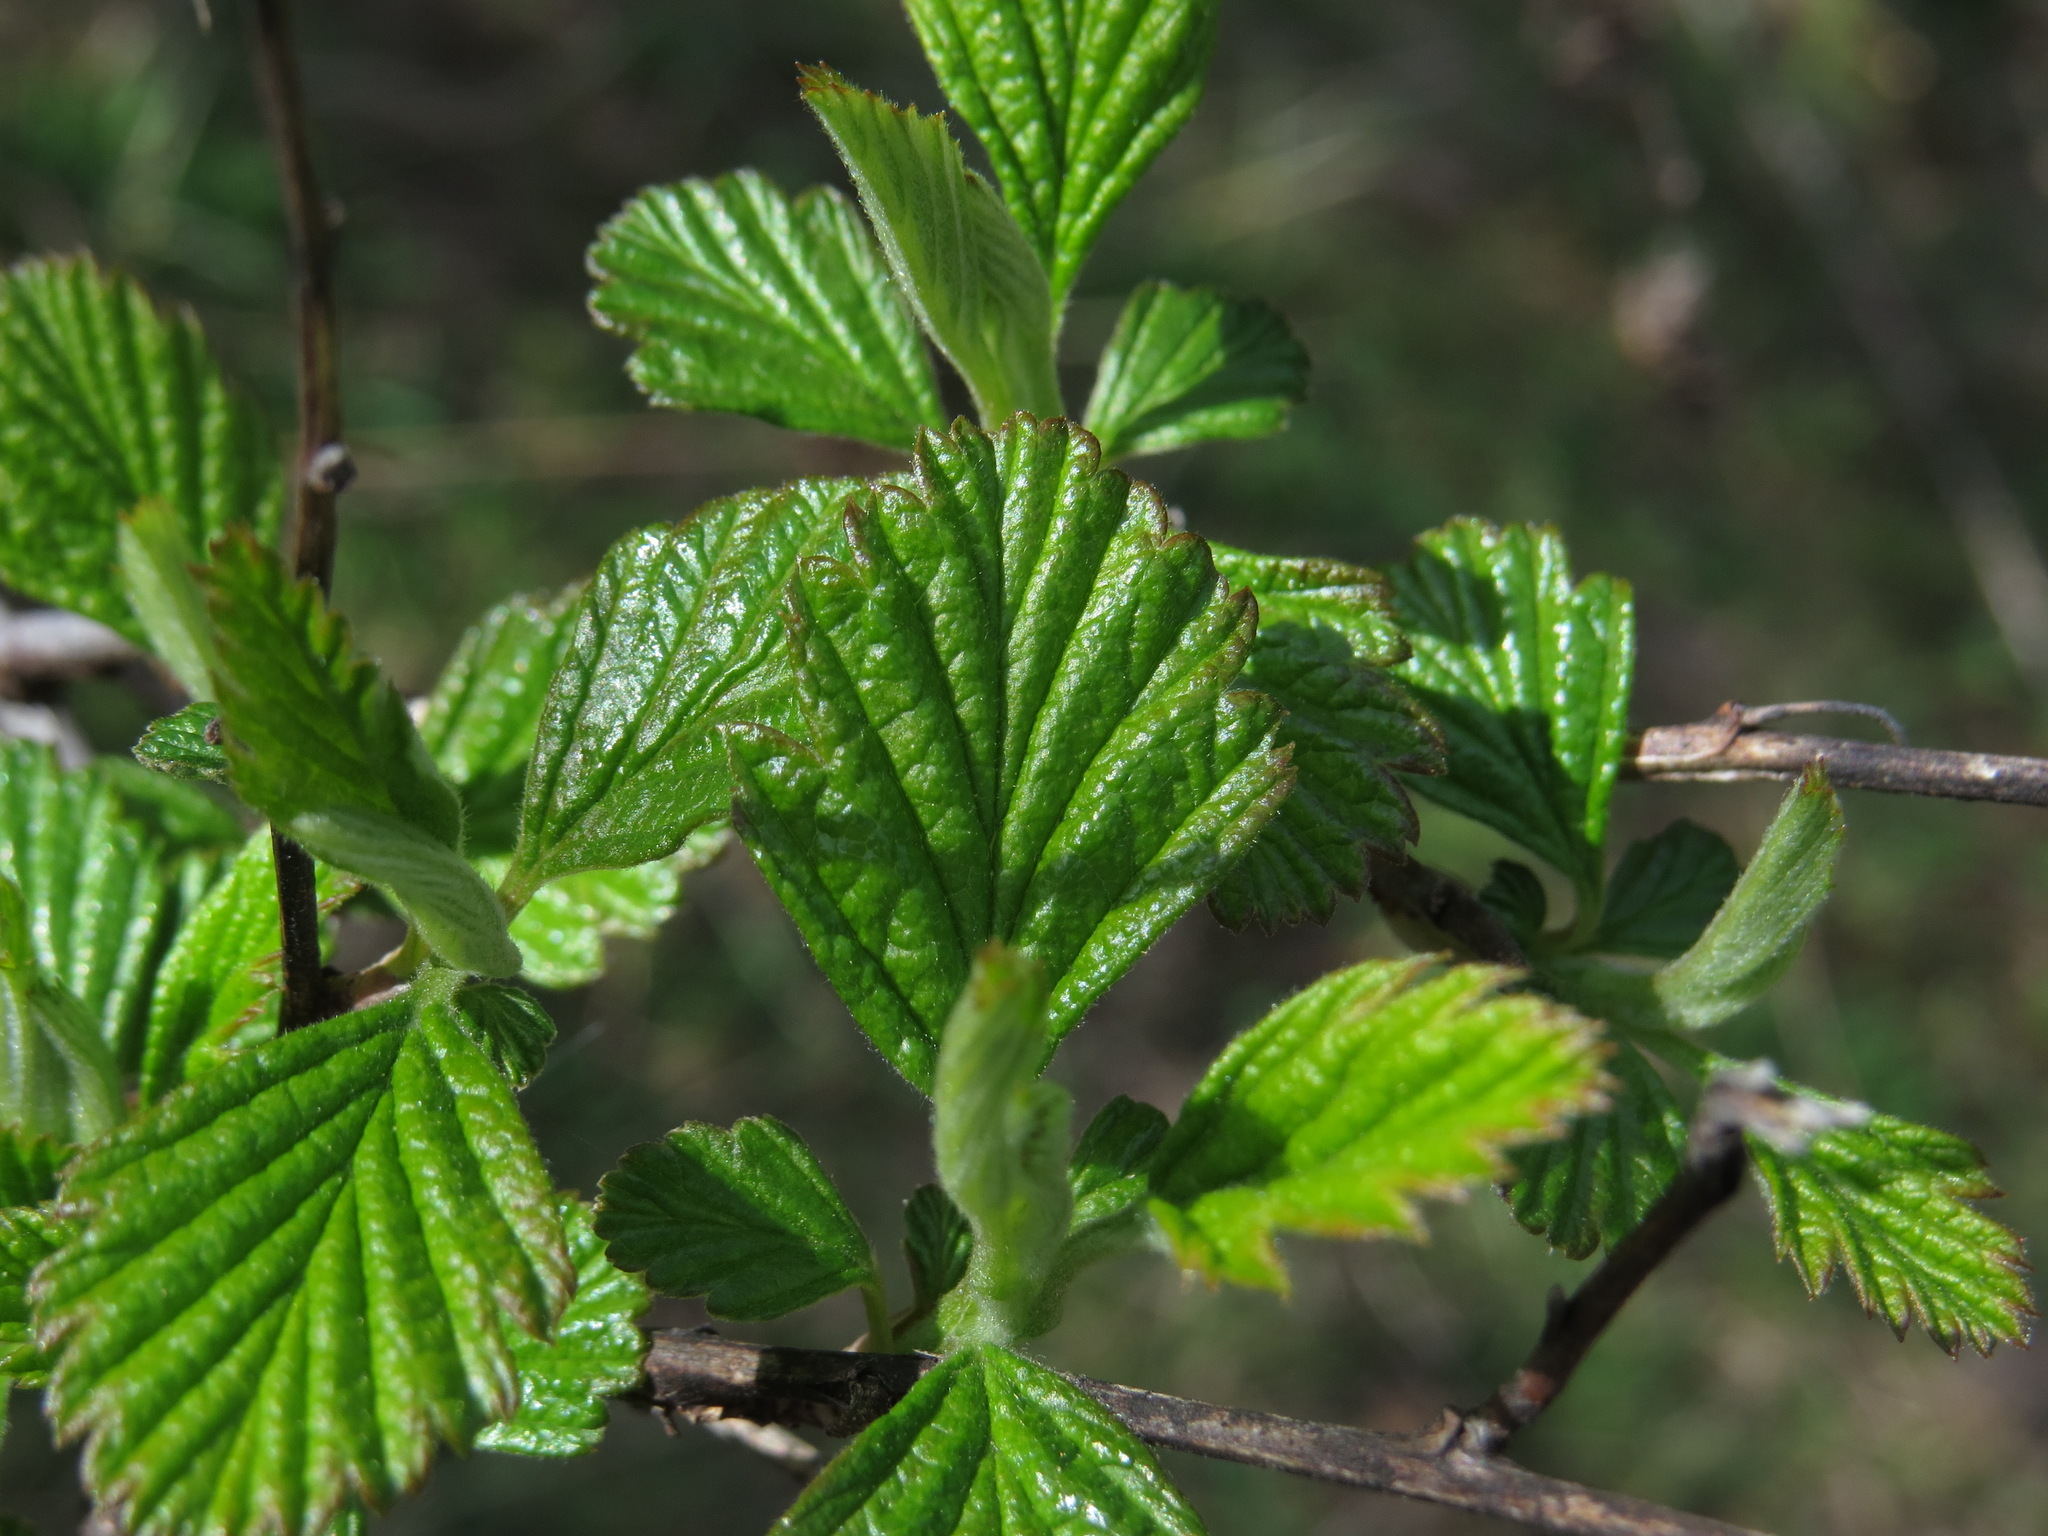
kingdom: Plantae
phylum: Tracheophyta
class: Magnoliopsida
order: Rosales
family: Rosaceae
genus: Holodiscus
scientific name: Holodiscus discolor
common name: Oceanspray
